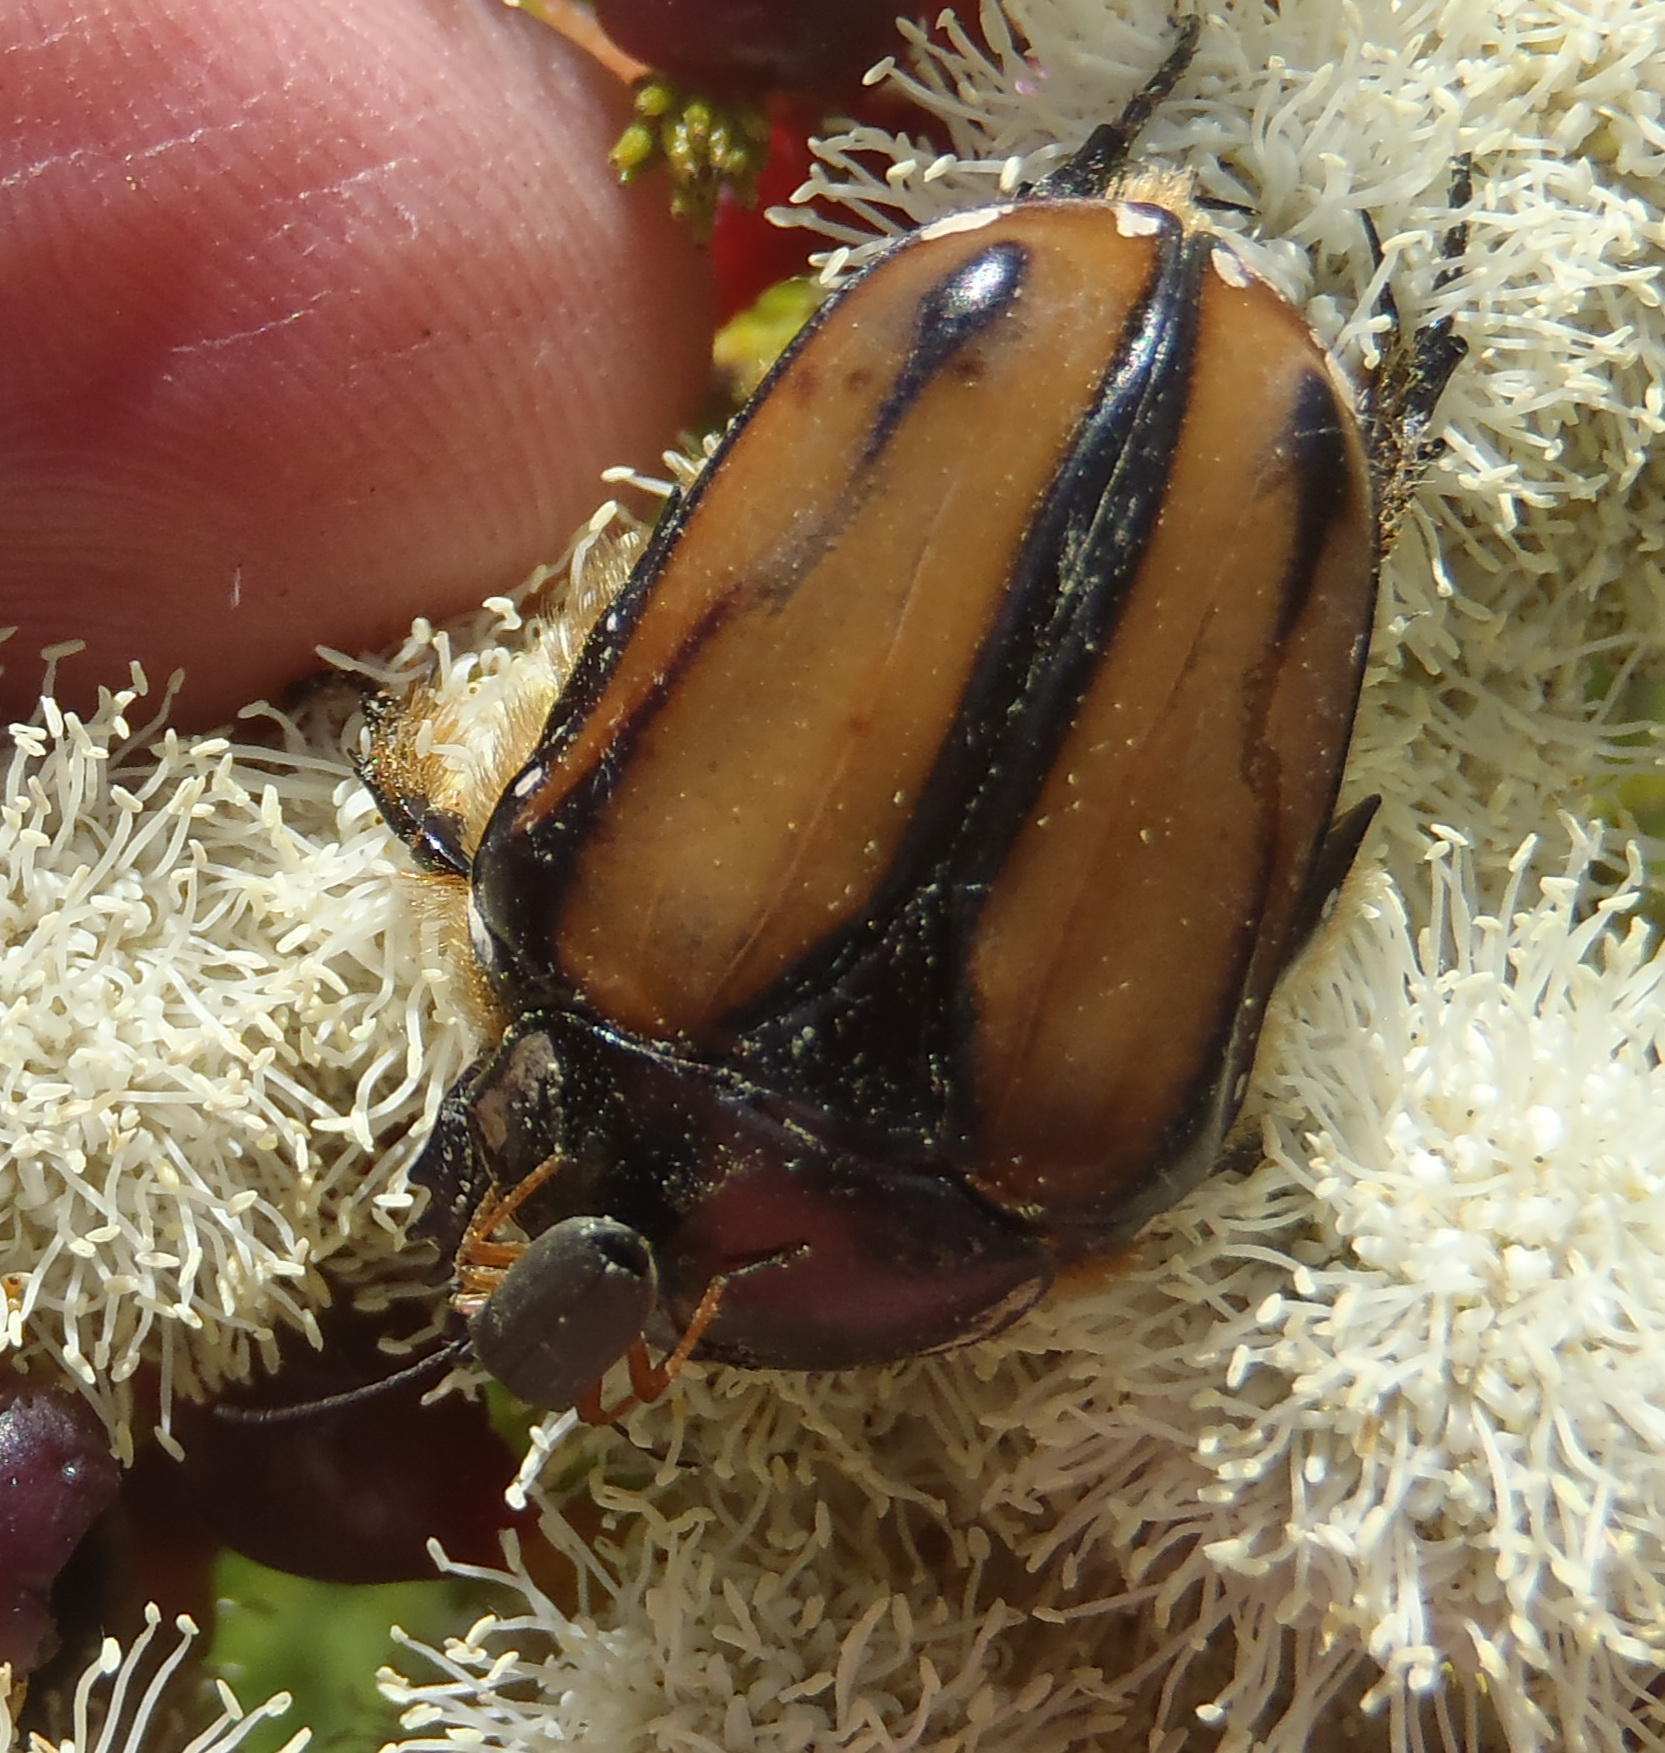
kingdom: Animalia
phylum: Arthropoda
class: Insecta
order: Coleoptera
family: Scarabaeidae
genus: Trichostetha
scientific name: Trichostetha capensis
